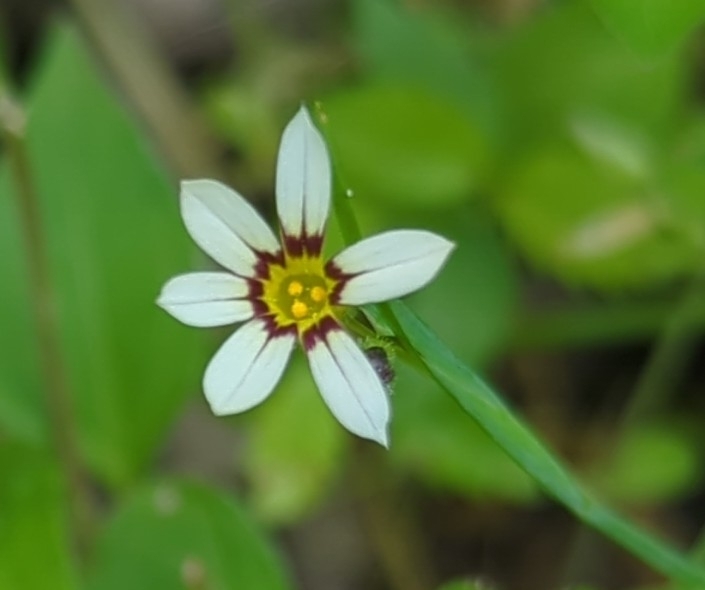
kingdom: Plantae
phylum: Tracheophyta
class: Liliopsida
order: Asparagales
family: Iridaceae
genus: Sisyrinchium
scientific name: Sisyrinchium micranthum
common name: Bermuda pigroot
